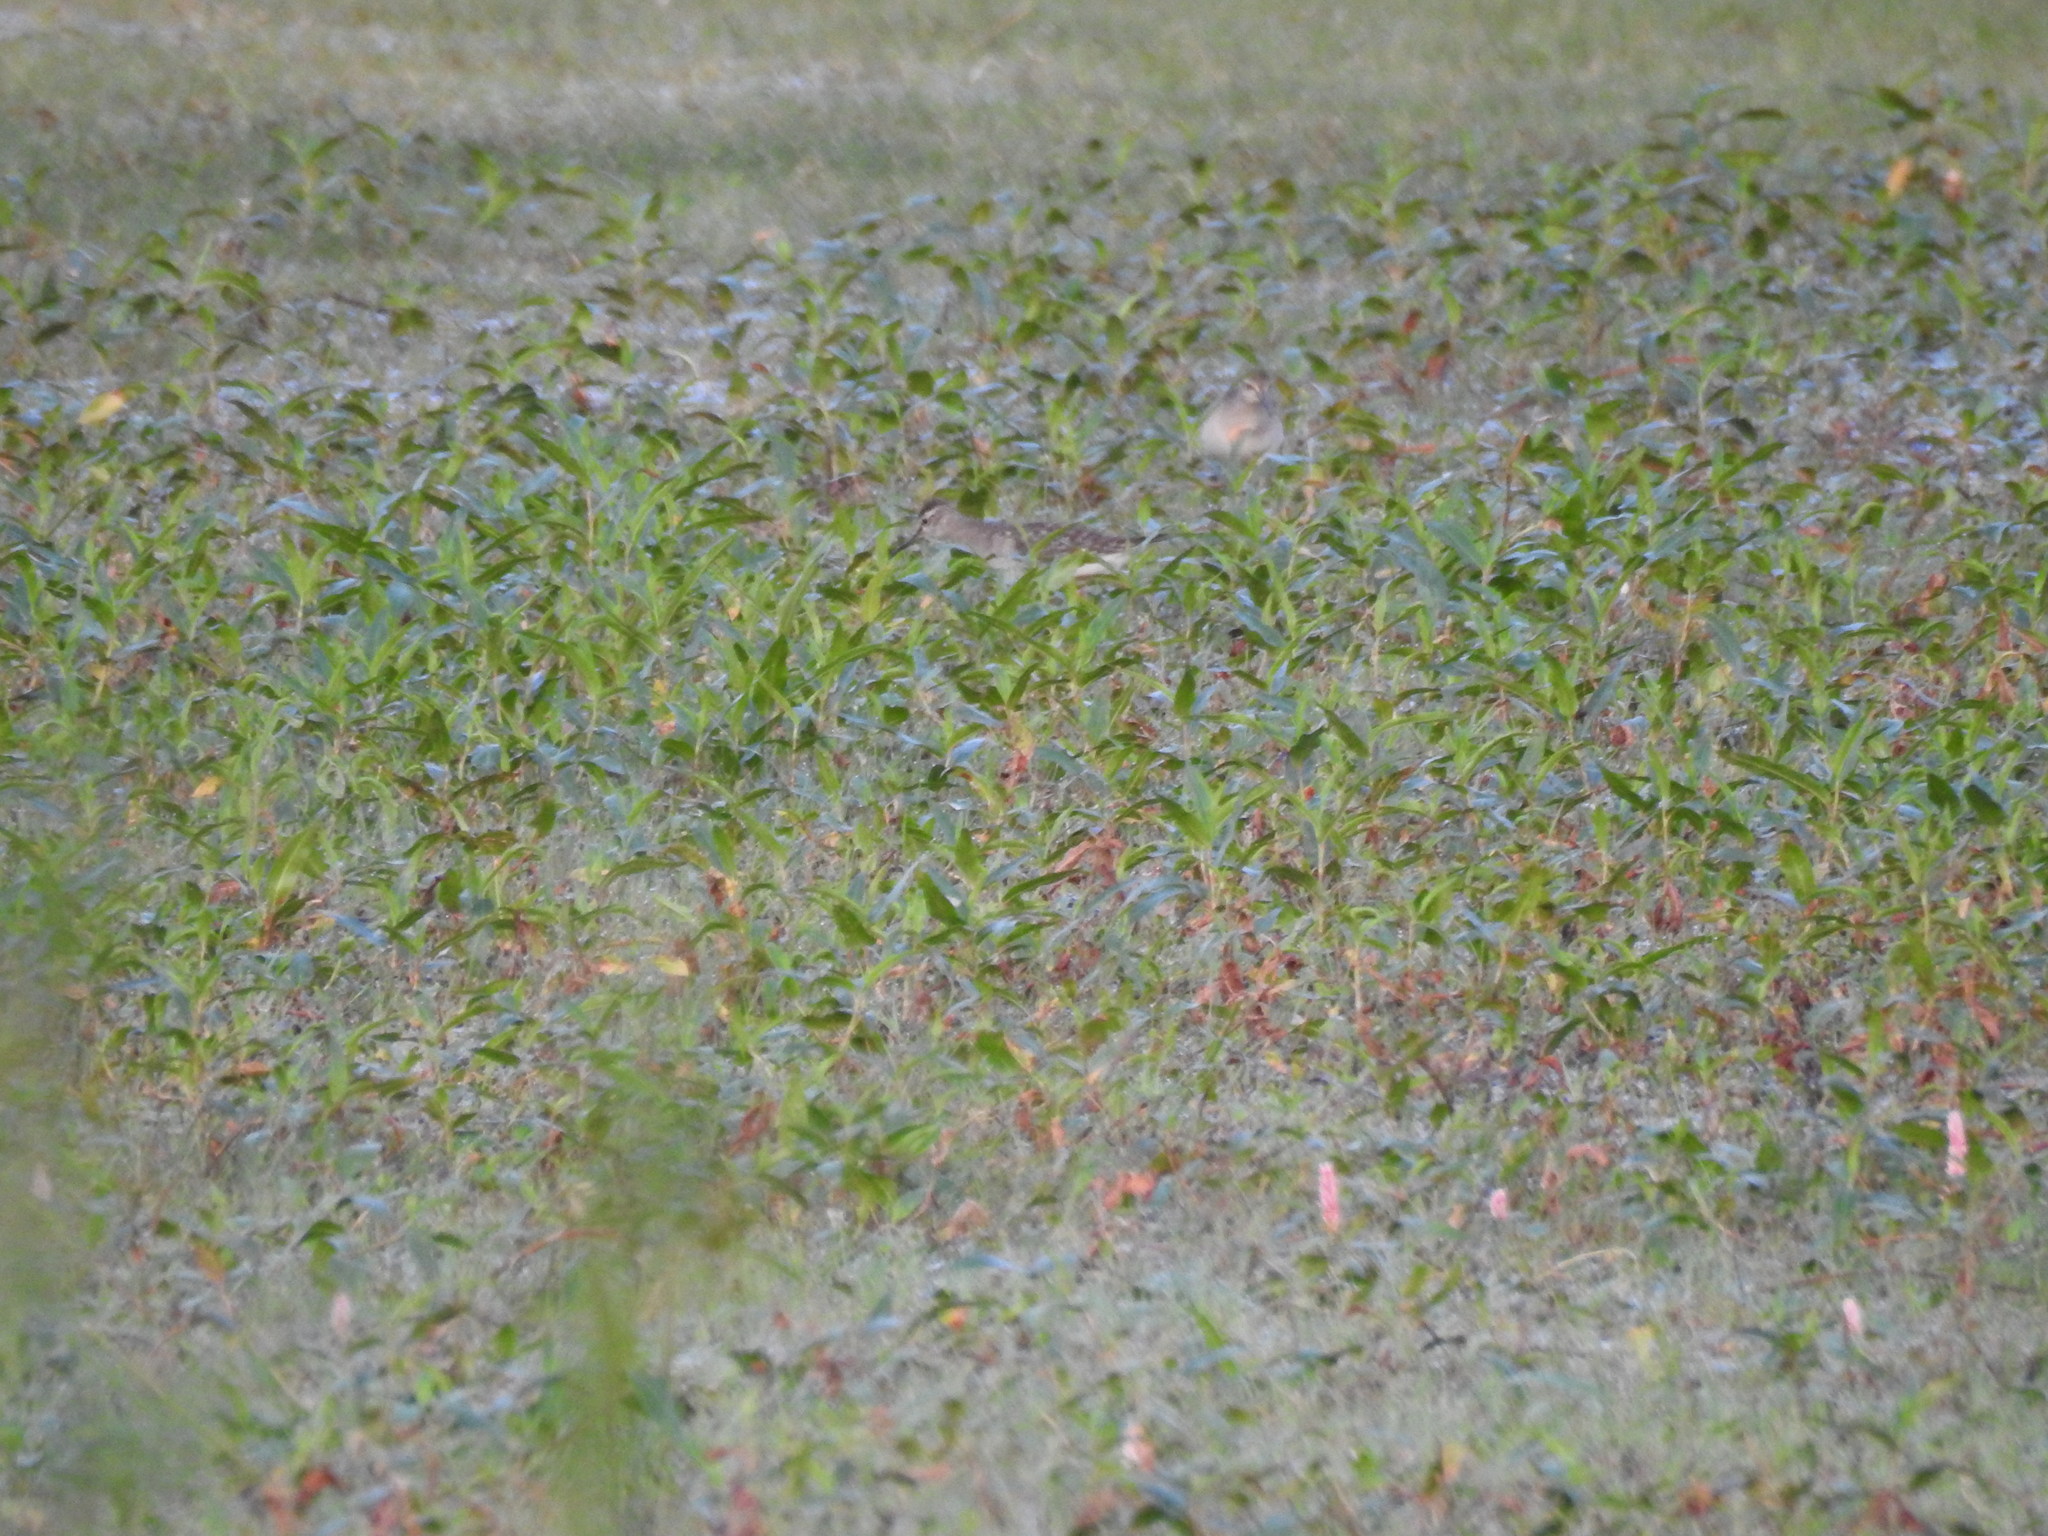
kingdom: Animalia
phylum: Chordata
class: Aves
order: Charadriiformes
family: Scolopacidae
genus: Tringa
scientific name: Tringa glareola
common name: Wood sandpiper
